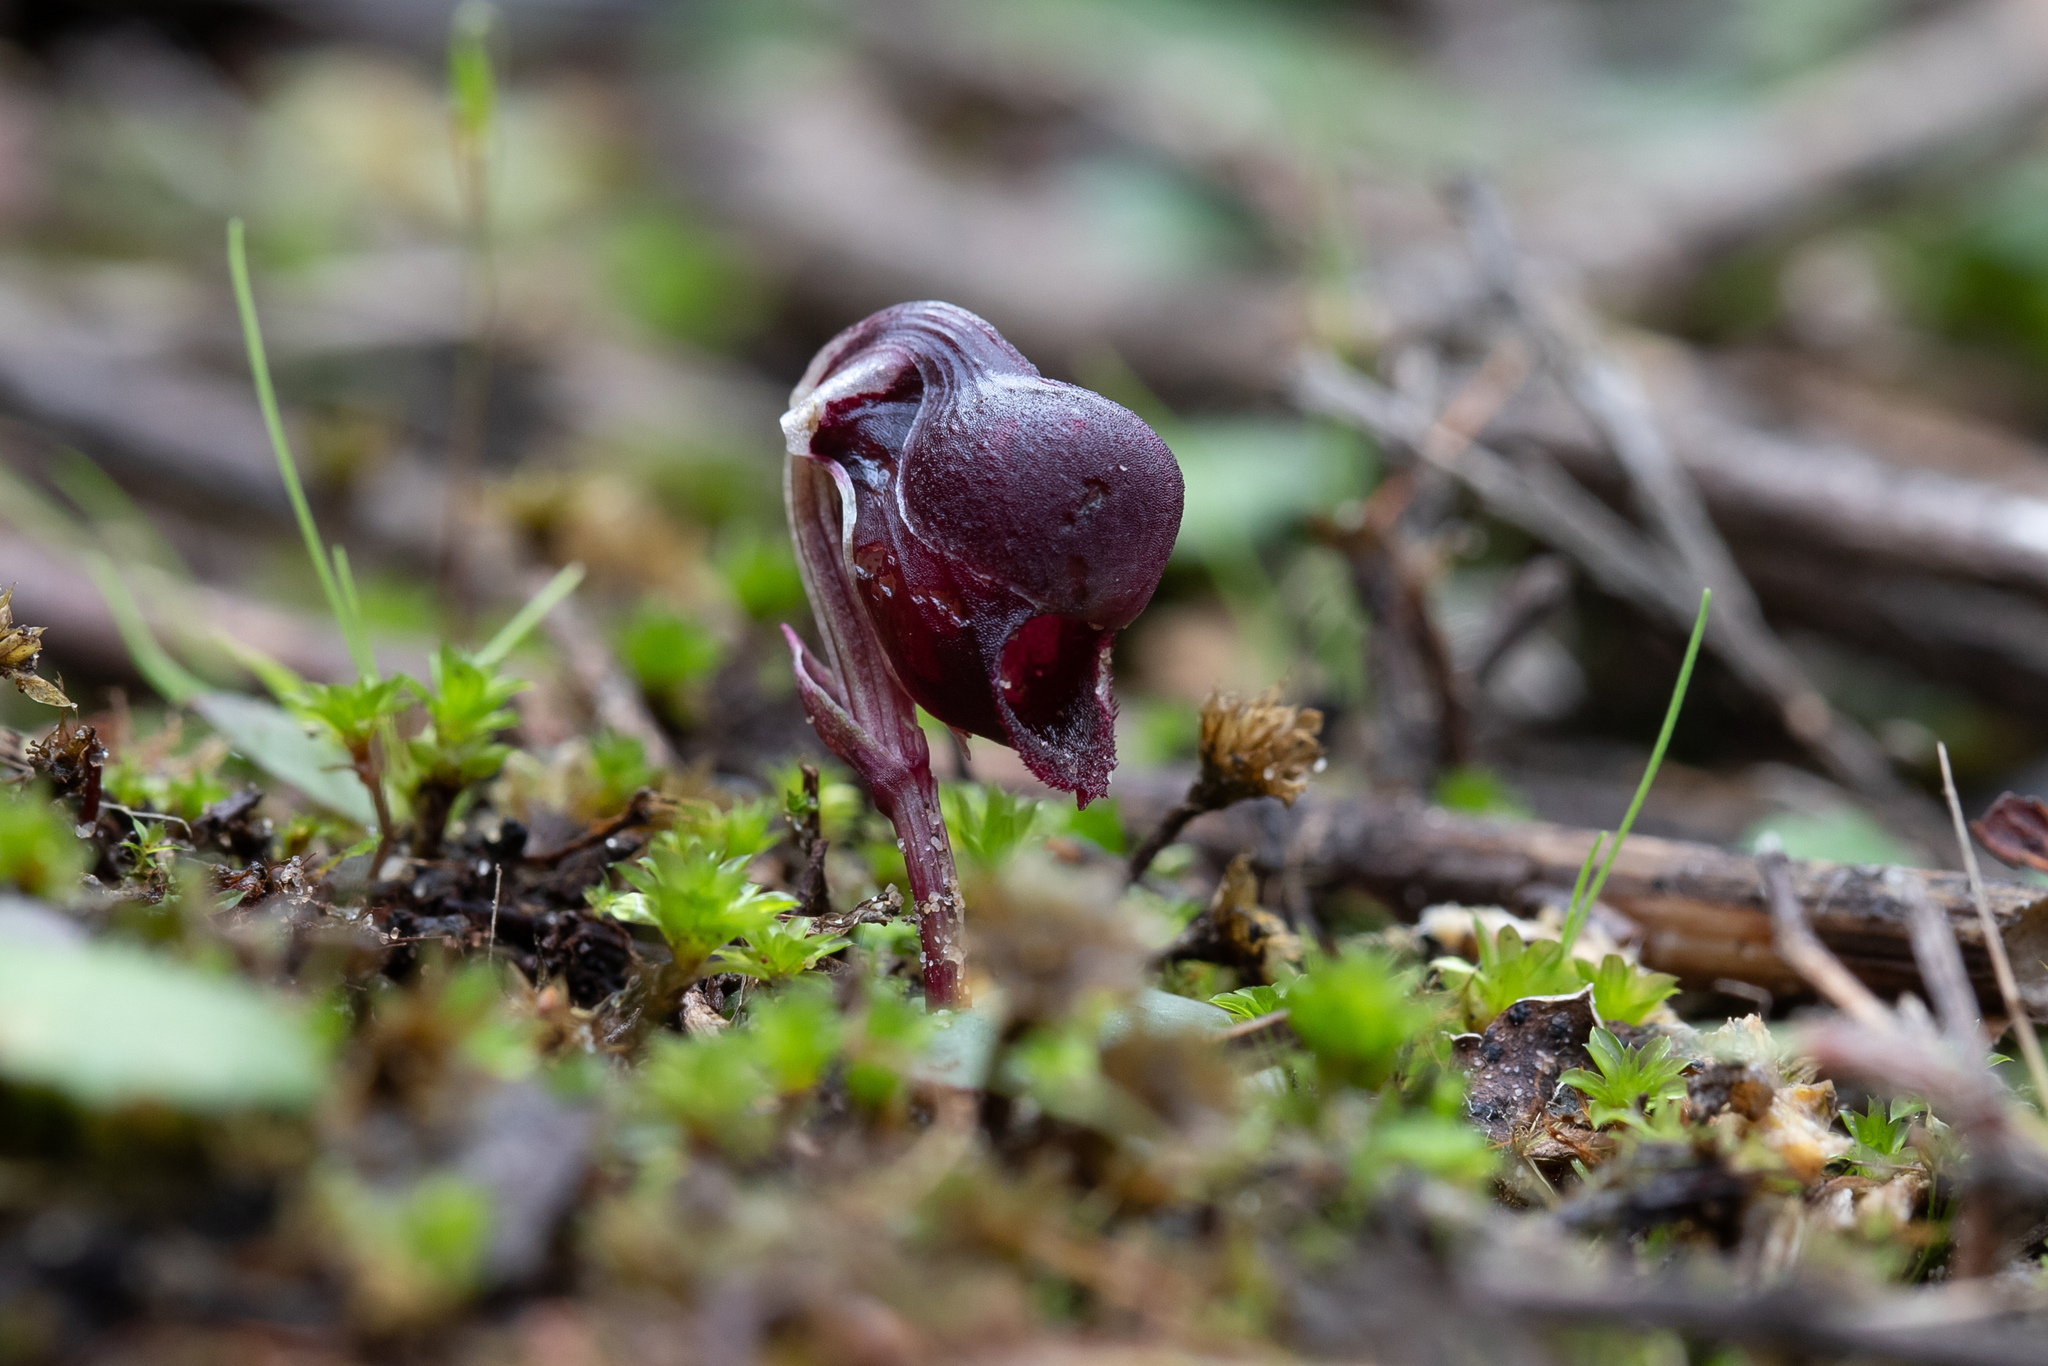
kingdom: Plantae
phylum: Tracheophyta
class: Liliopsida
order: Asparagales
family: Orchidaceae
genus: Corybas
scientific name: Corybas unguiculatus
